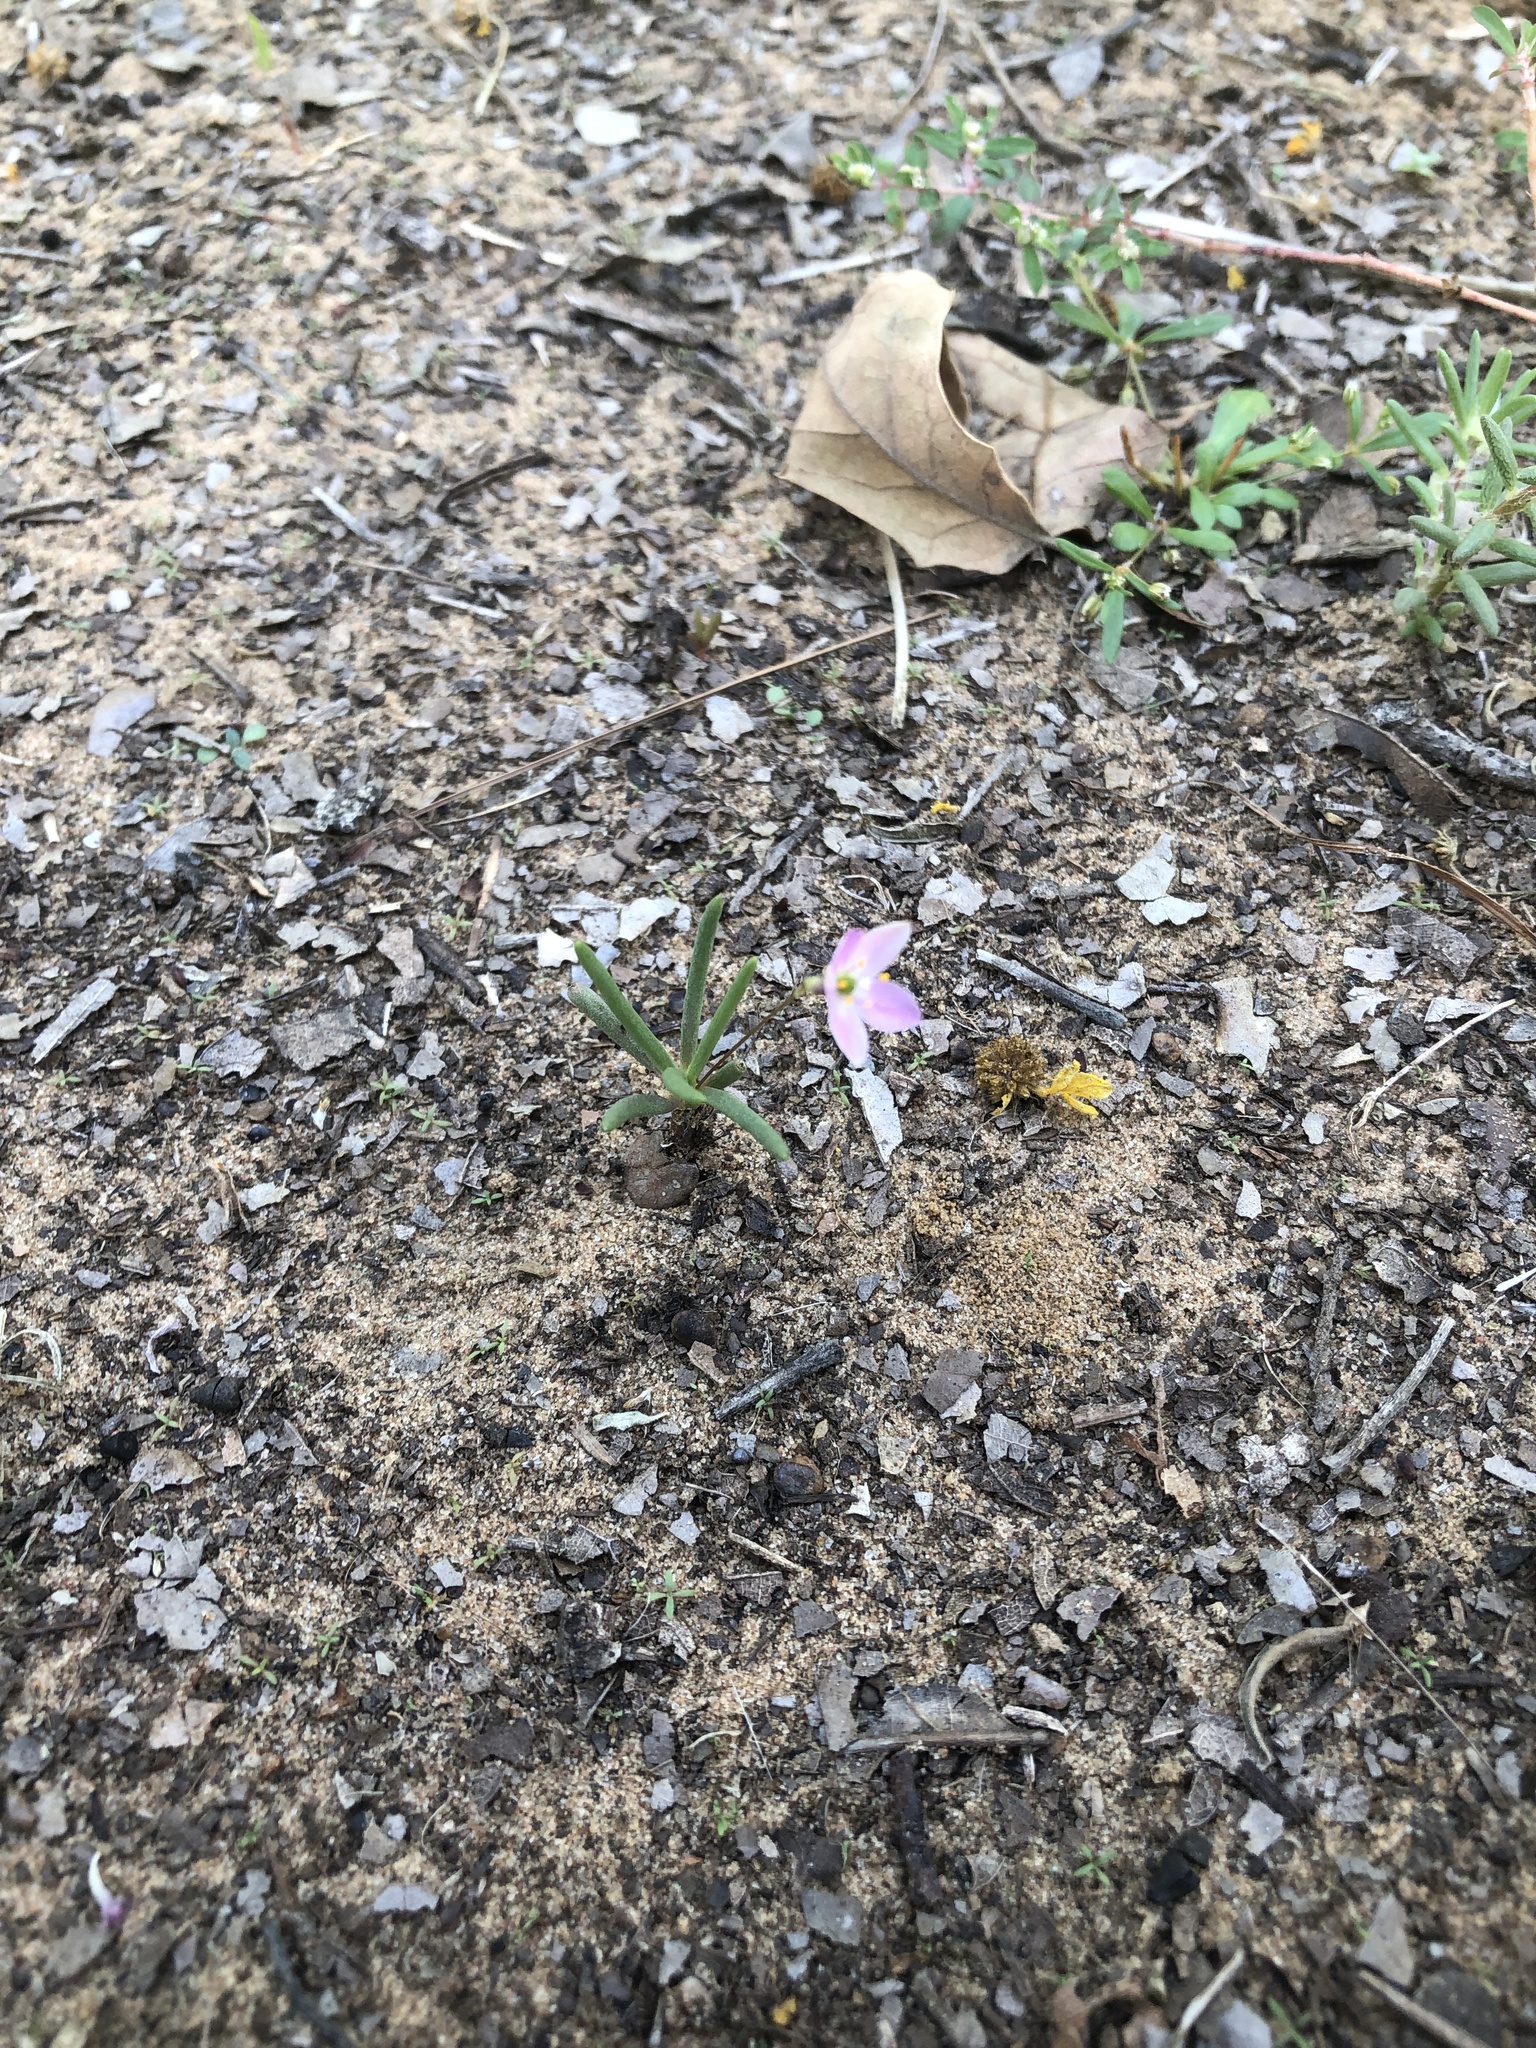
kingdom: Plantae
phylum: Tracheophyta
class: Magnoliopsida
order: Caryophyllales
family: Montiaceae
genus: Phemeranthus
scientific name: Phemeranthus parviflorus
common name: Sunbright
